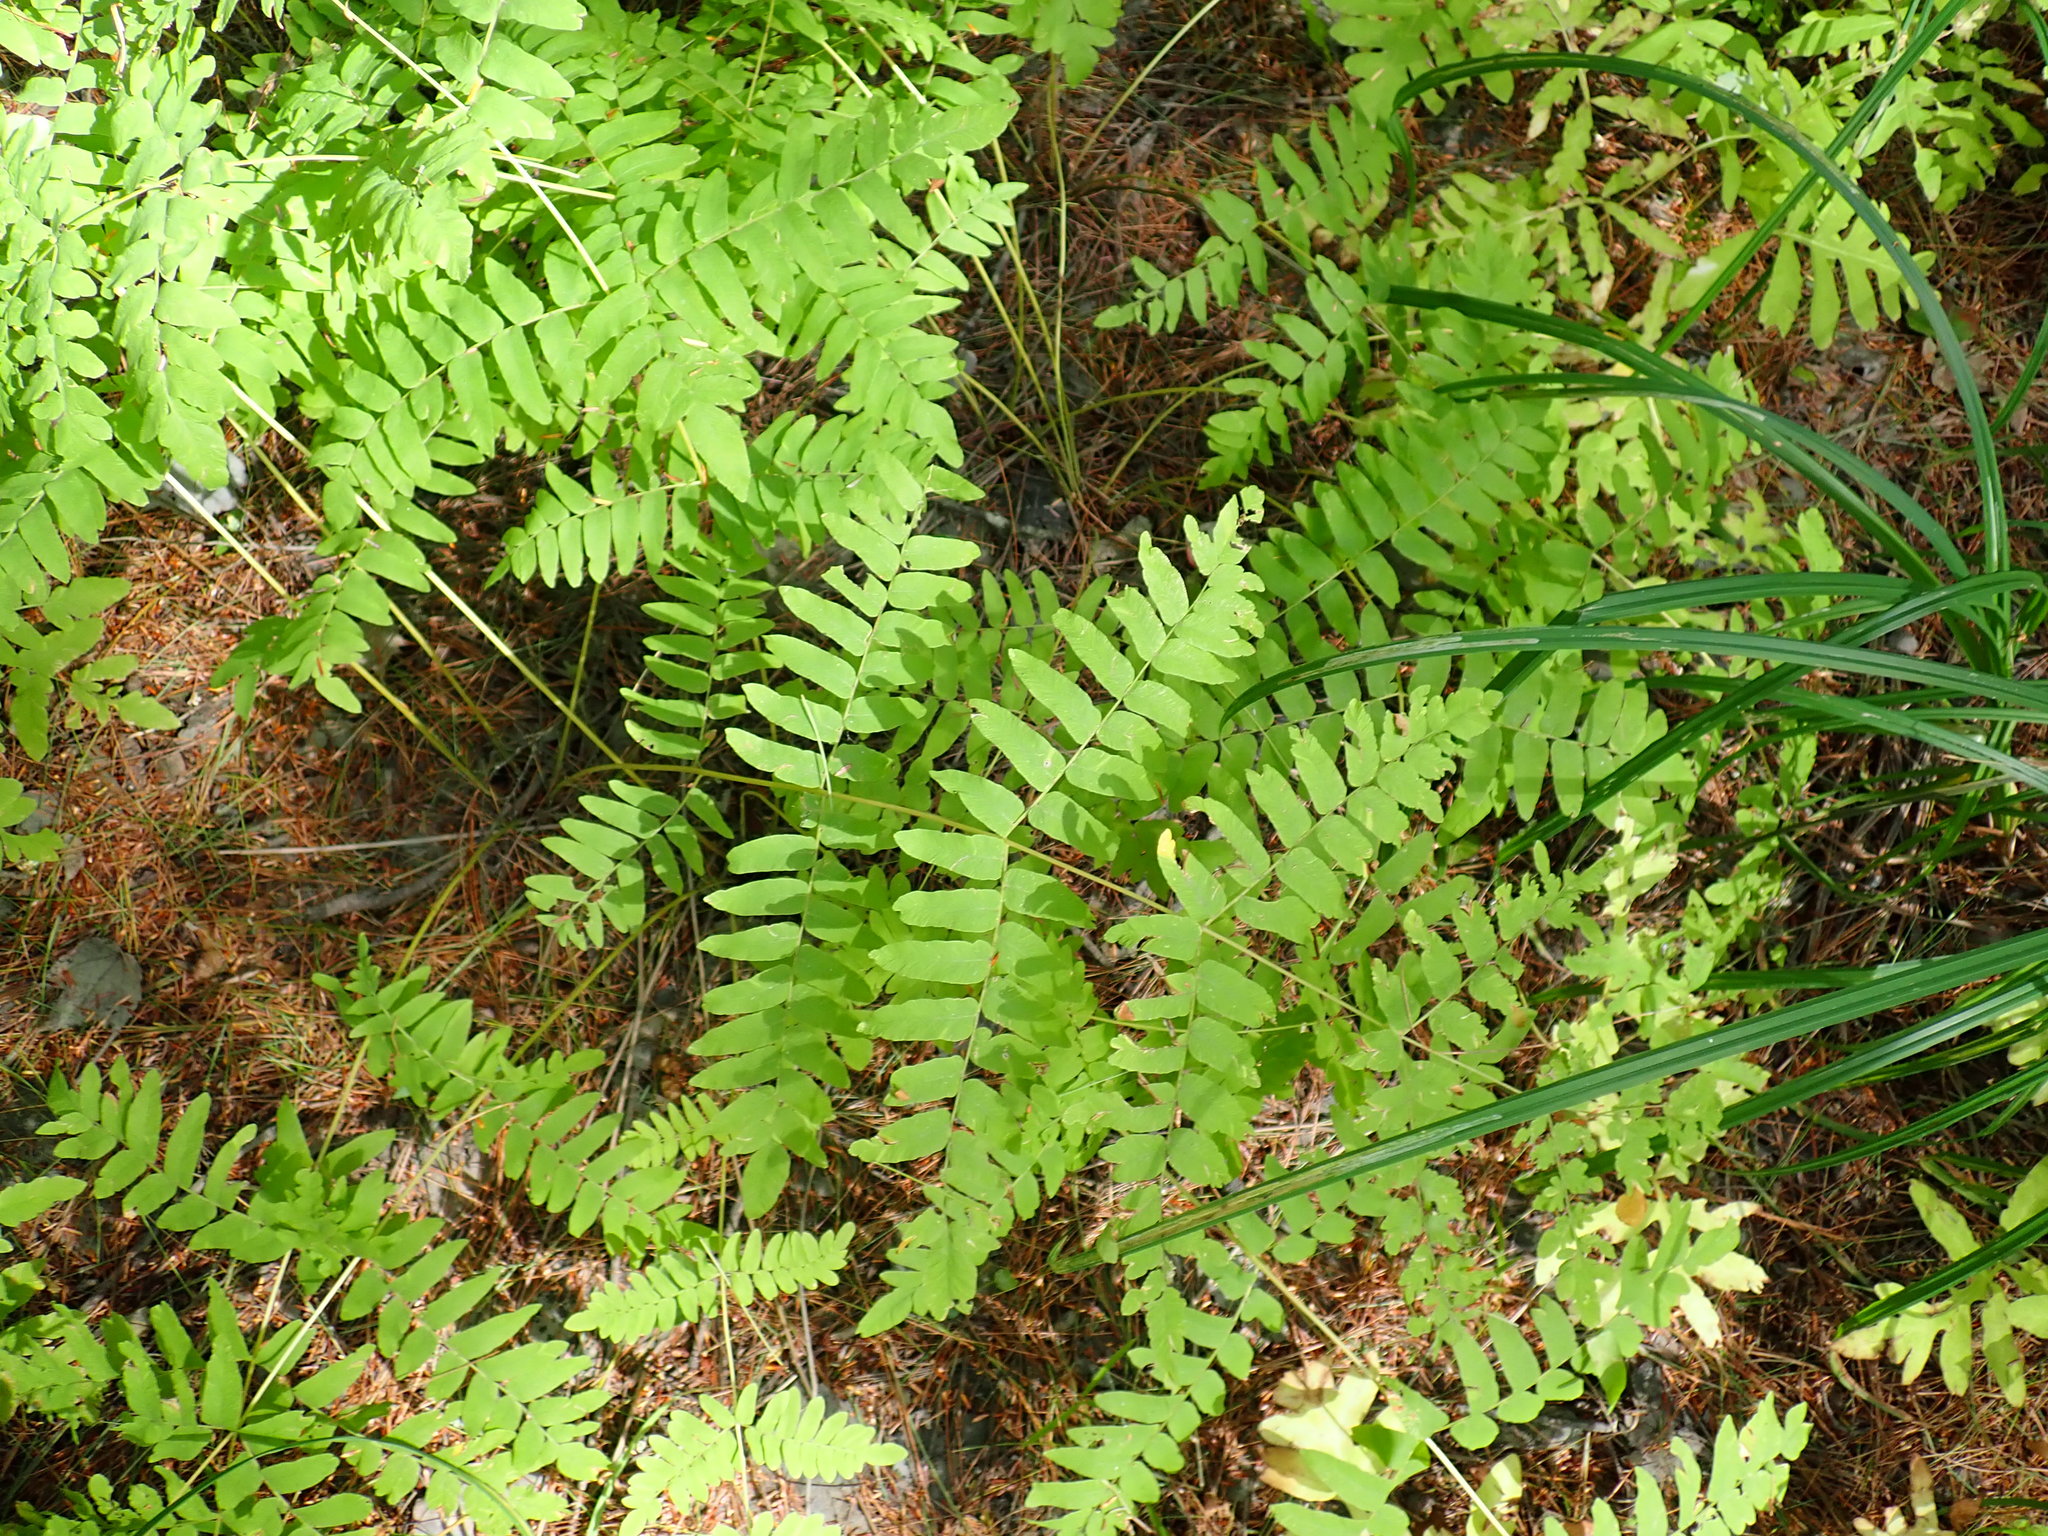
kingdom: Plantae
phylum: Tracheophyta
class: Polypodiopsida
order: Osmundales
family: Osmundaceae
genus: Osmunda
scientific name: Osmunda spectabilis
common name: American royal fern
